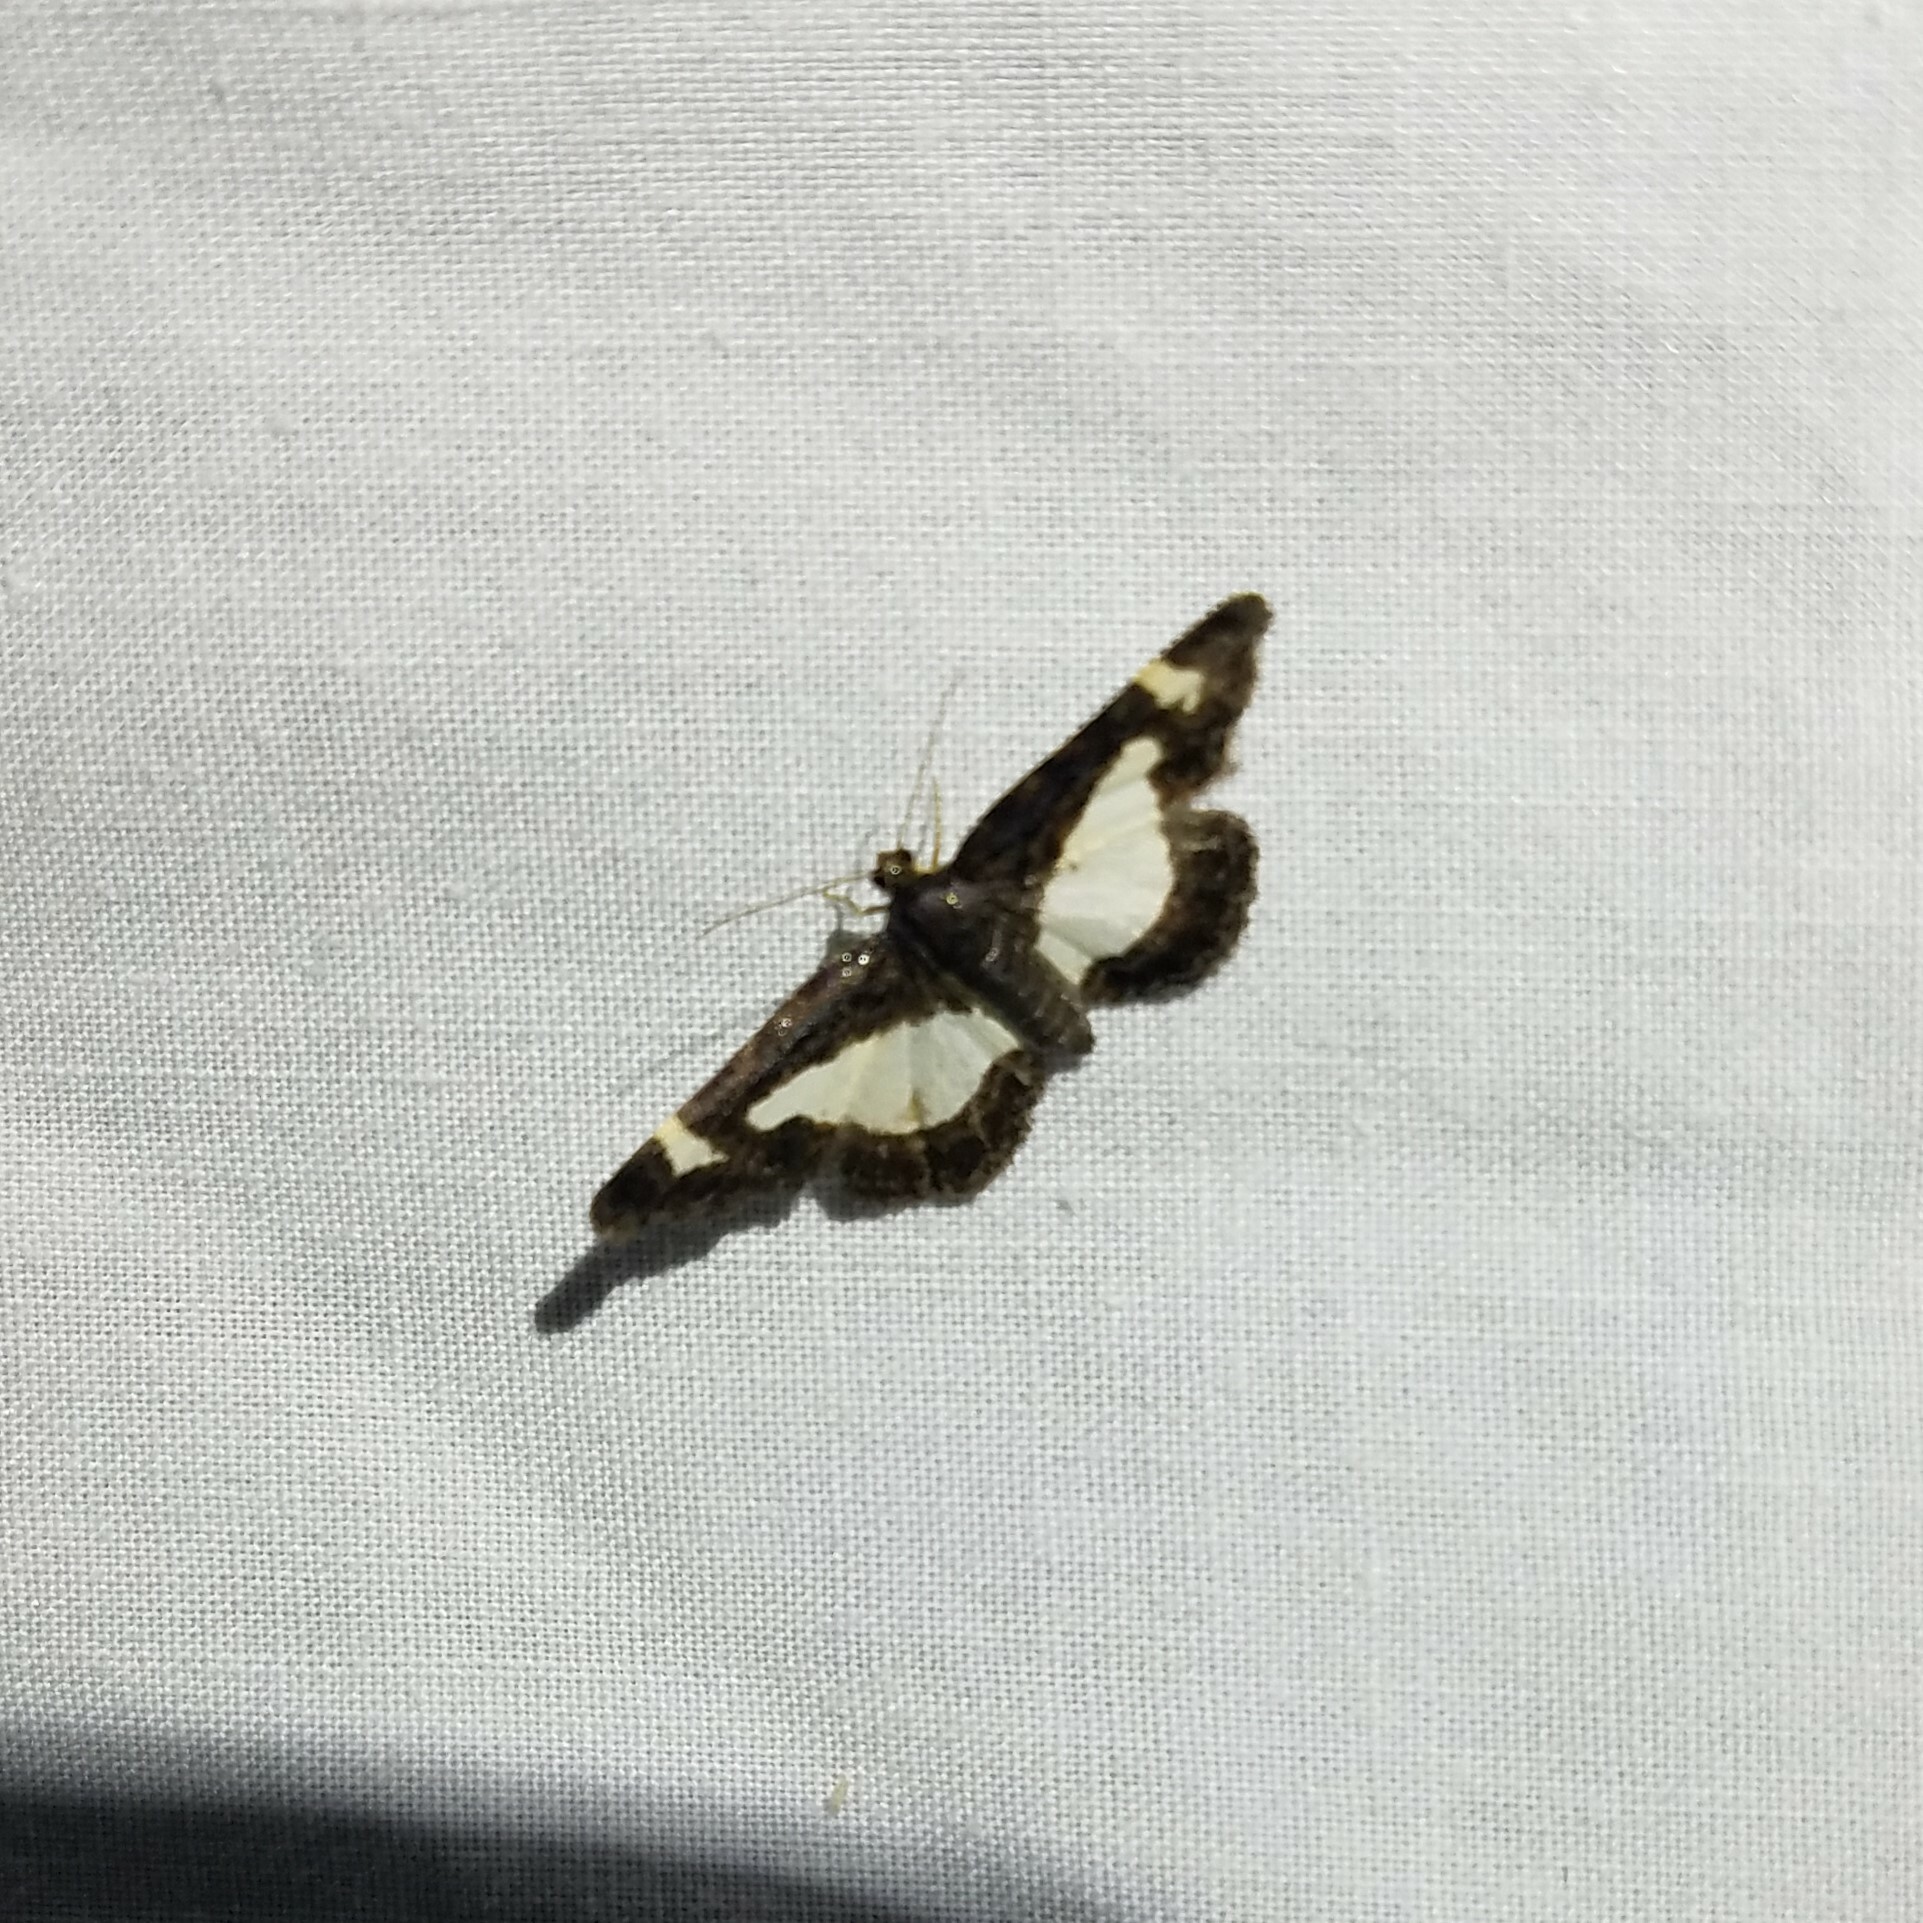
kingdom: Animalia
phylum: Arthropoda
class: Insecta
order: Lepidoptera
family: Geometridae
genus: Heliomata
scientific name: Heliomata cycladata
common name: Common spring moth
